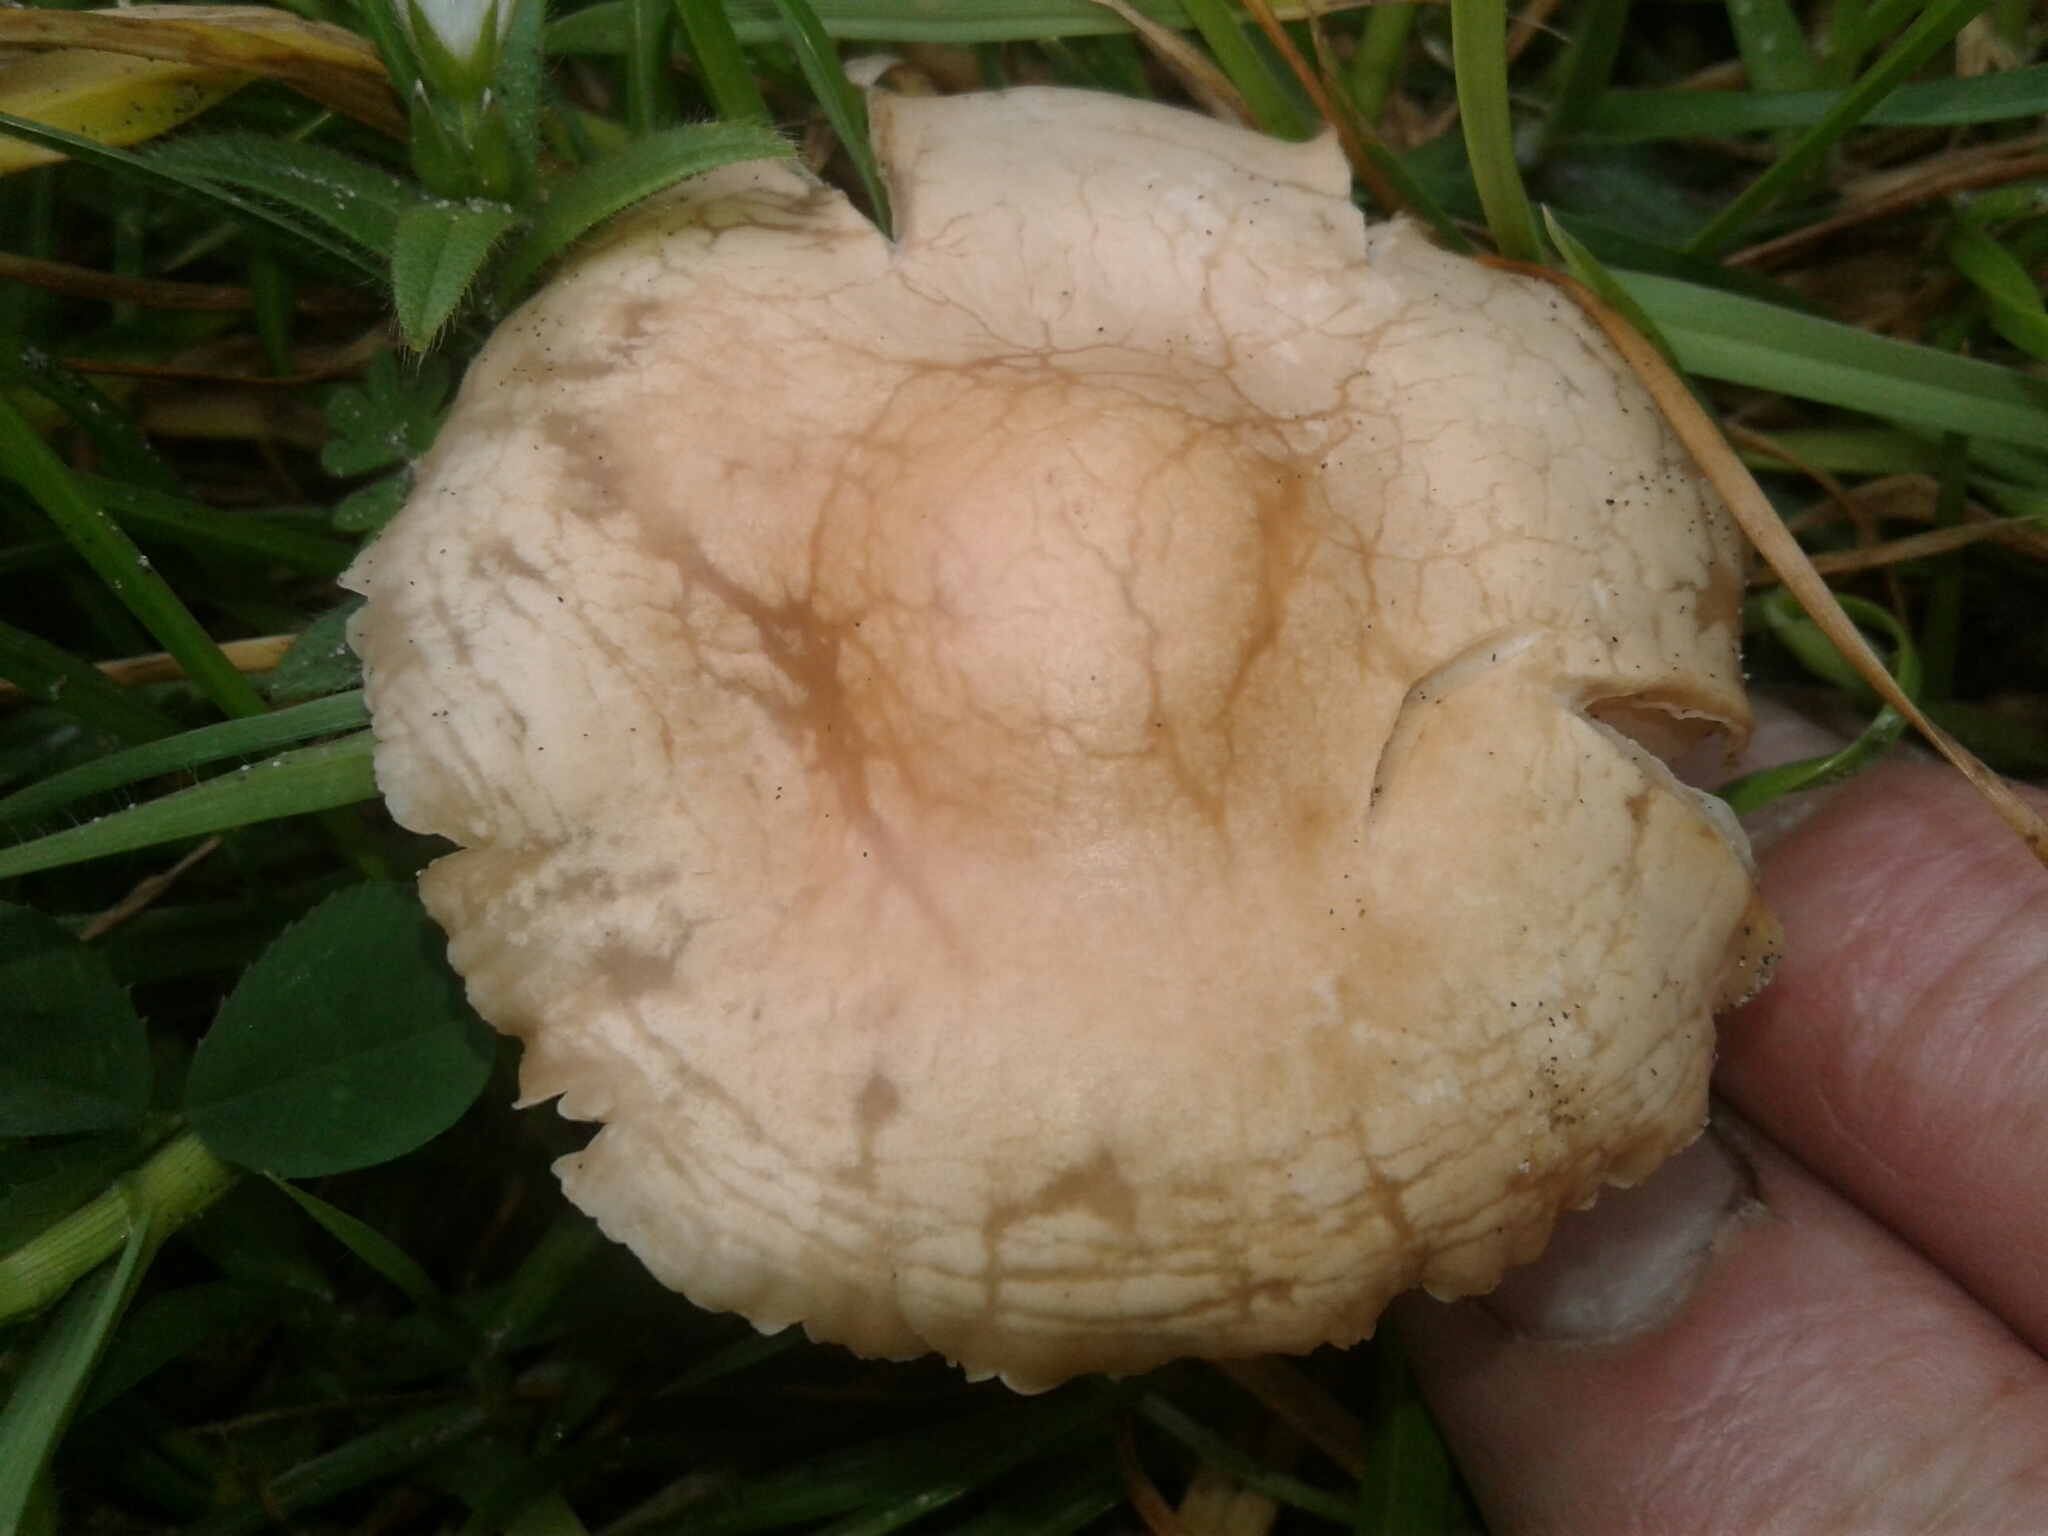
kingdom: Fungi
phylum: Basidiomycota
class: Agaricomycetes
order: Agaricales
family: Marasmiaceae
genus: Marasmius
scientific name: Marasmius oreades
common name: Fairy ring champignon
